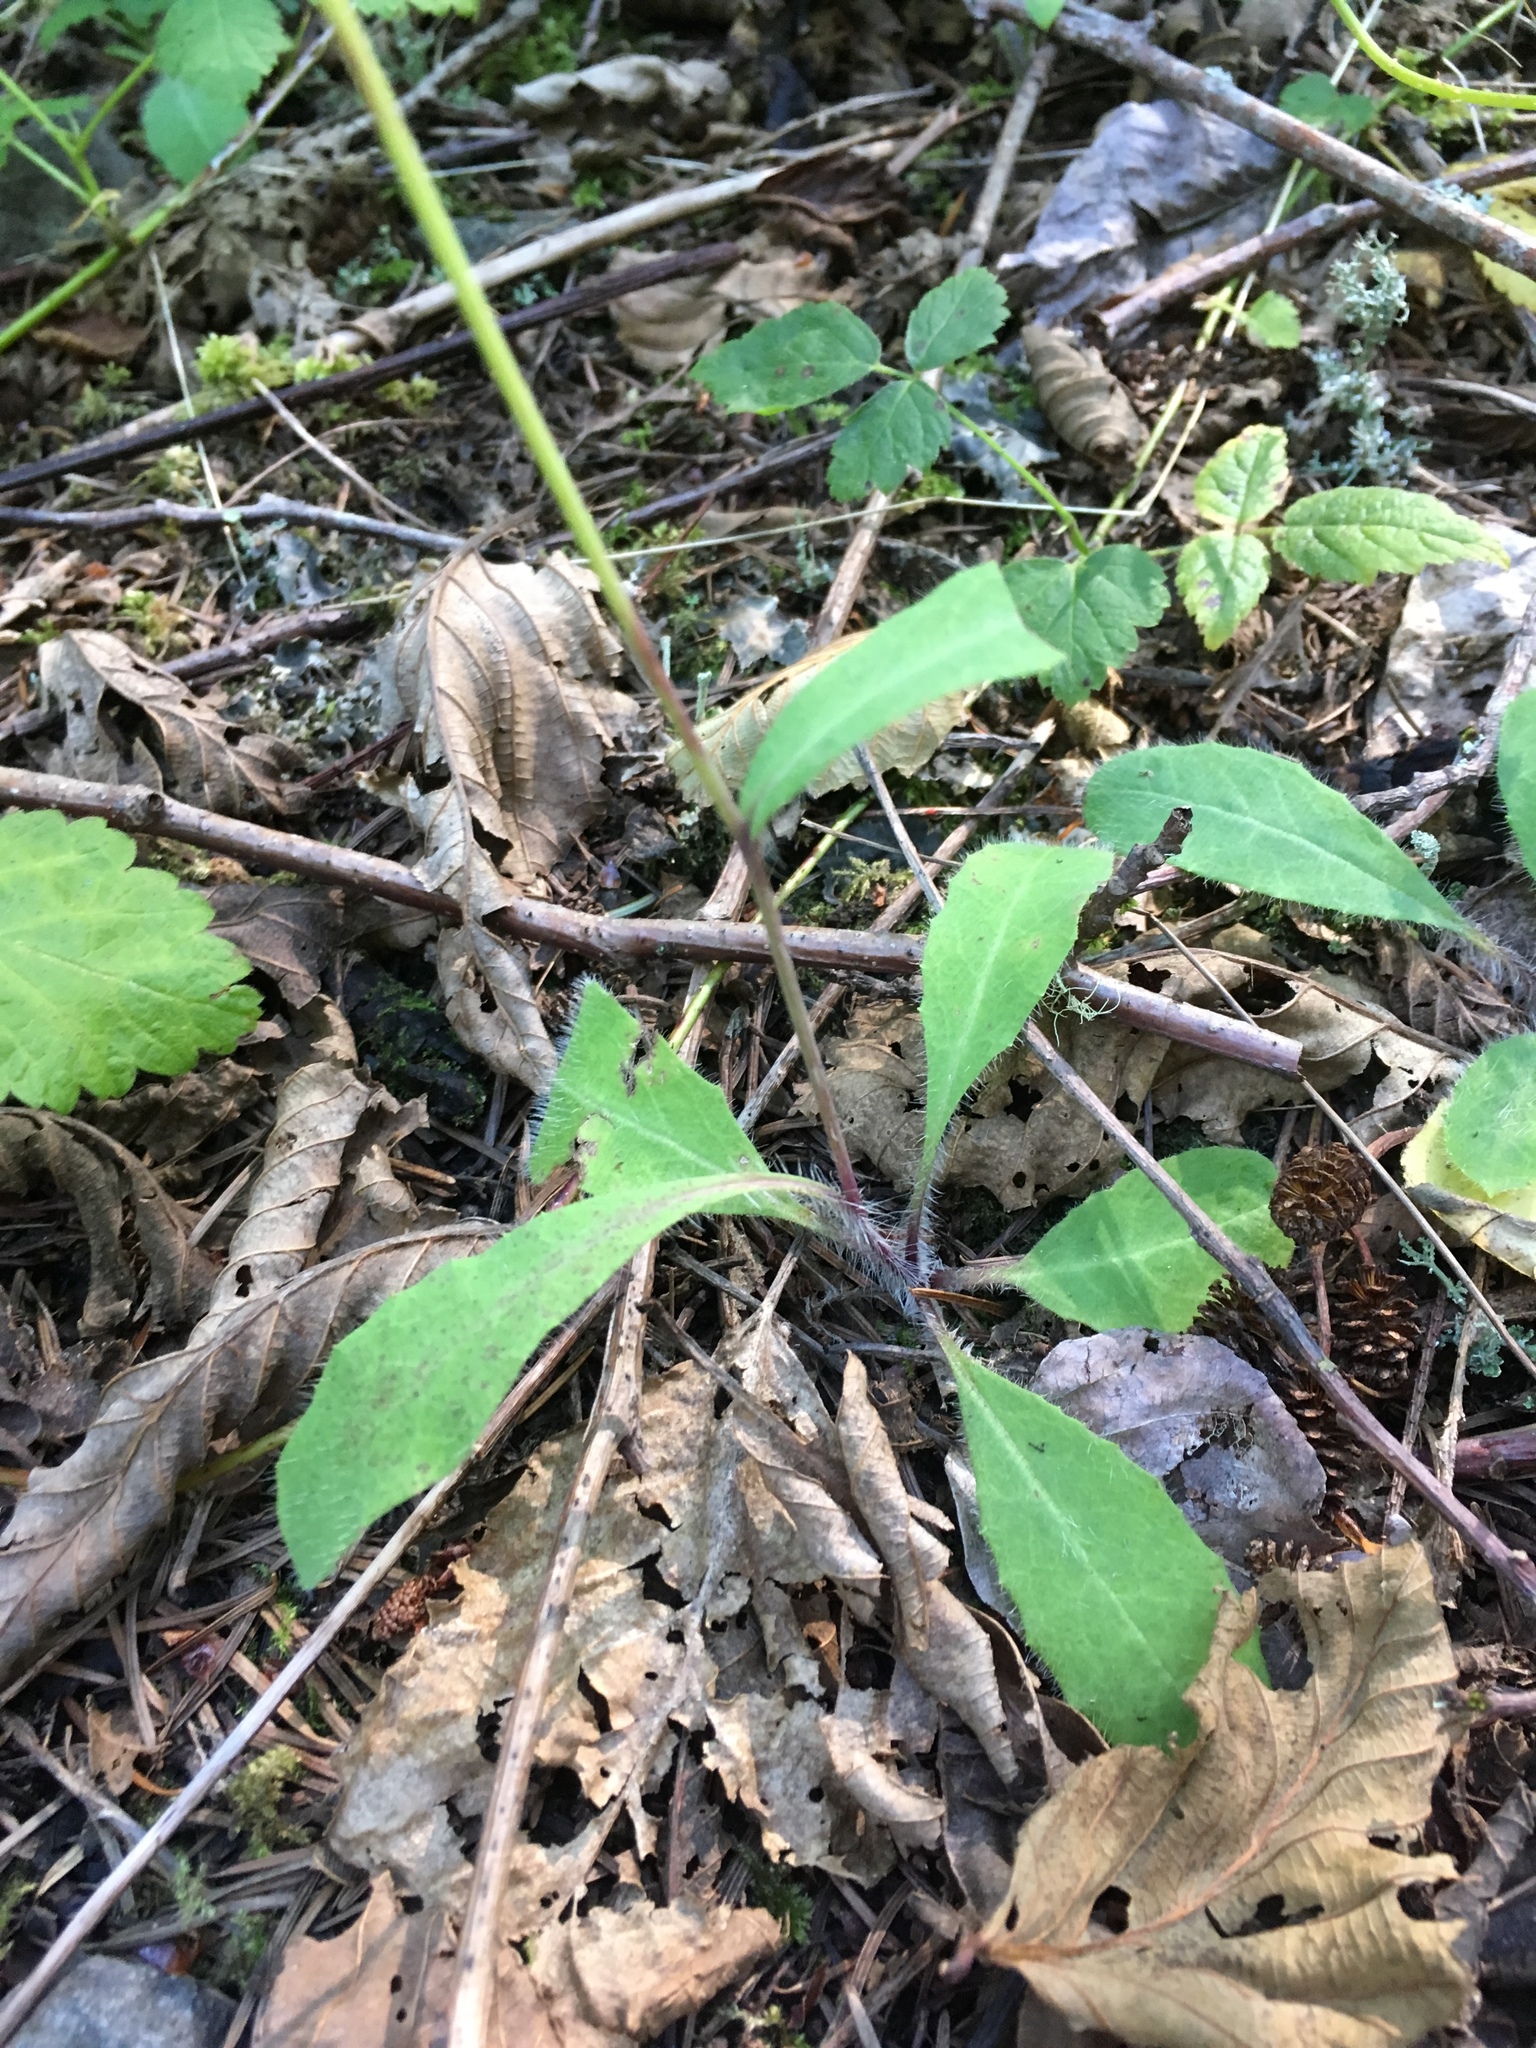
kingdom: Plantae
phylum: Tracheophyta
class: Magnoliopsida
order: Asterales
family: Asteraceae
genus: Hieracium
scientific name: Hieracium albiflorum
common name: White hawkweed
